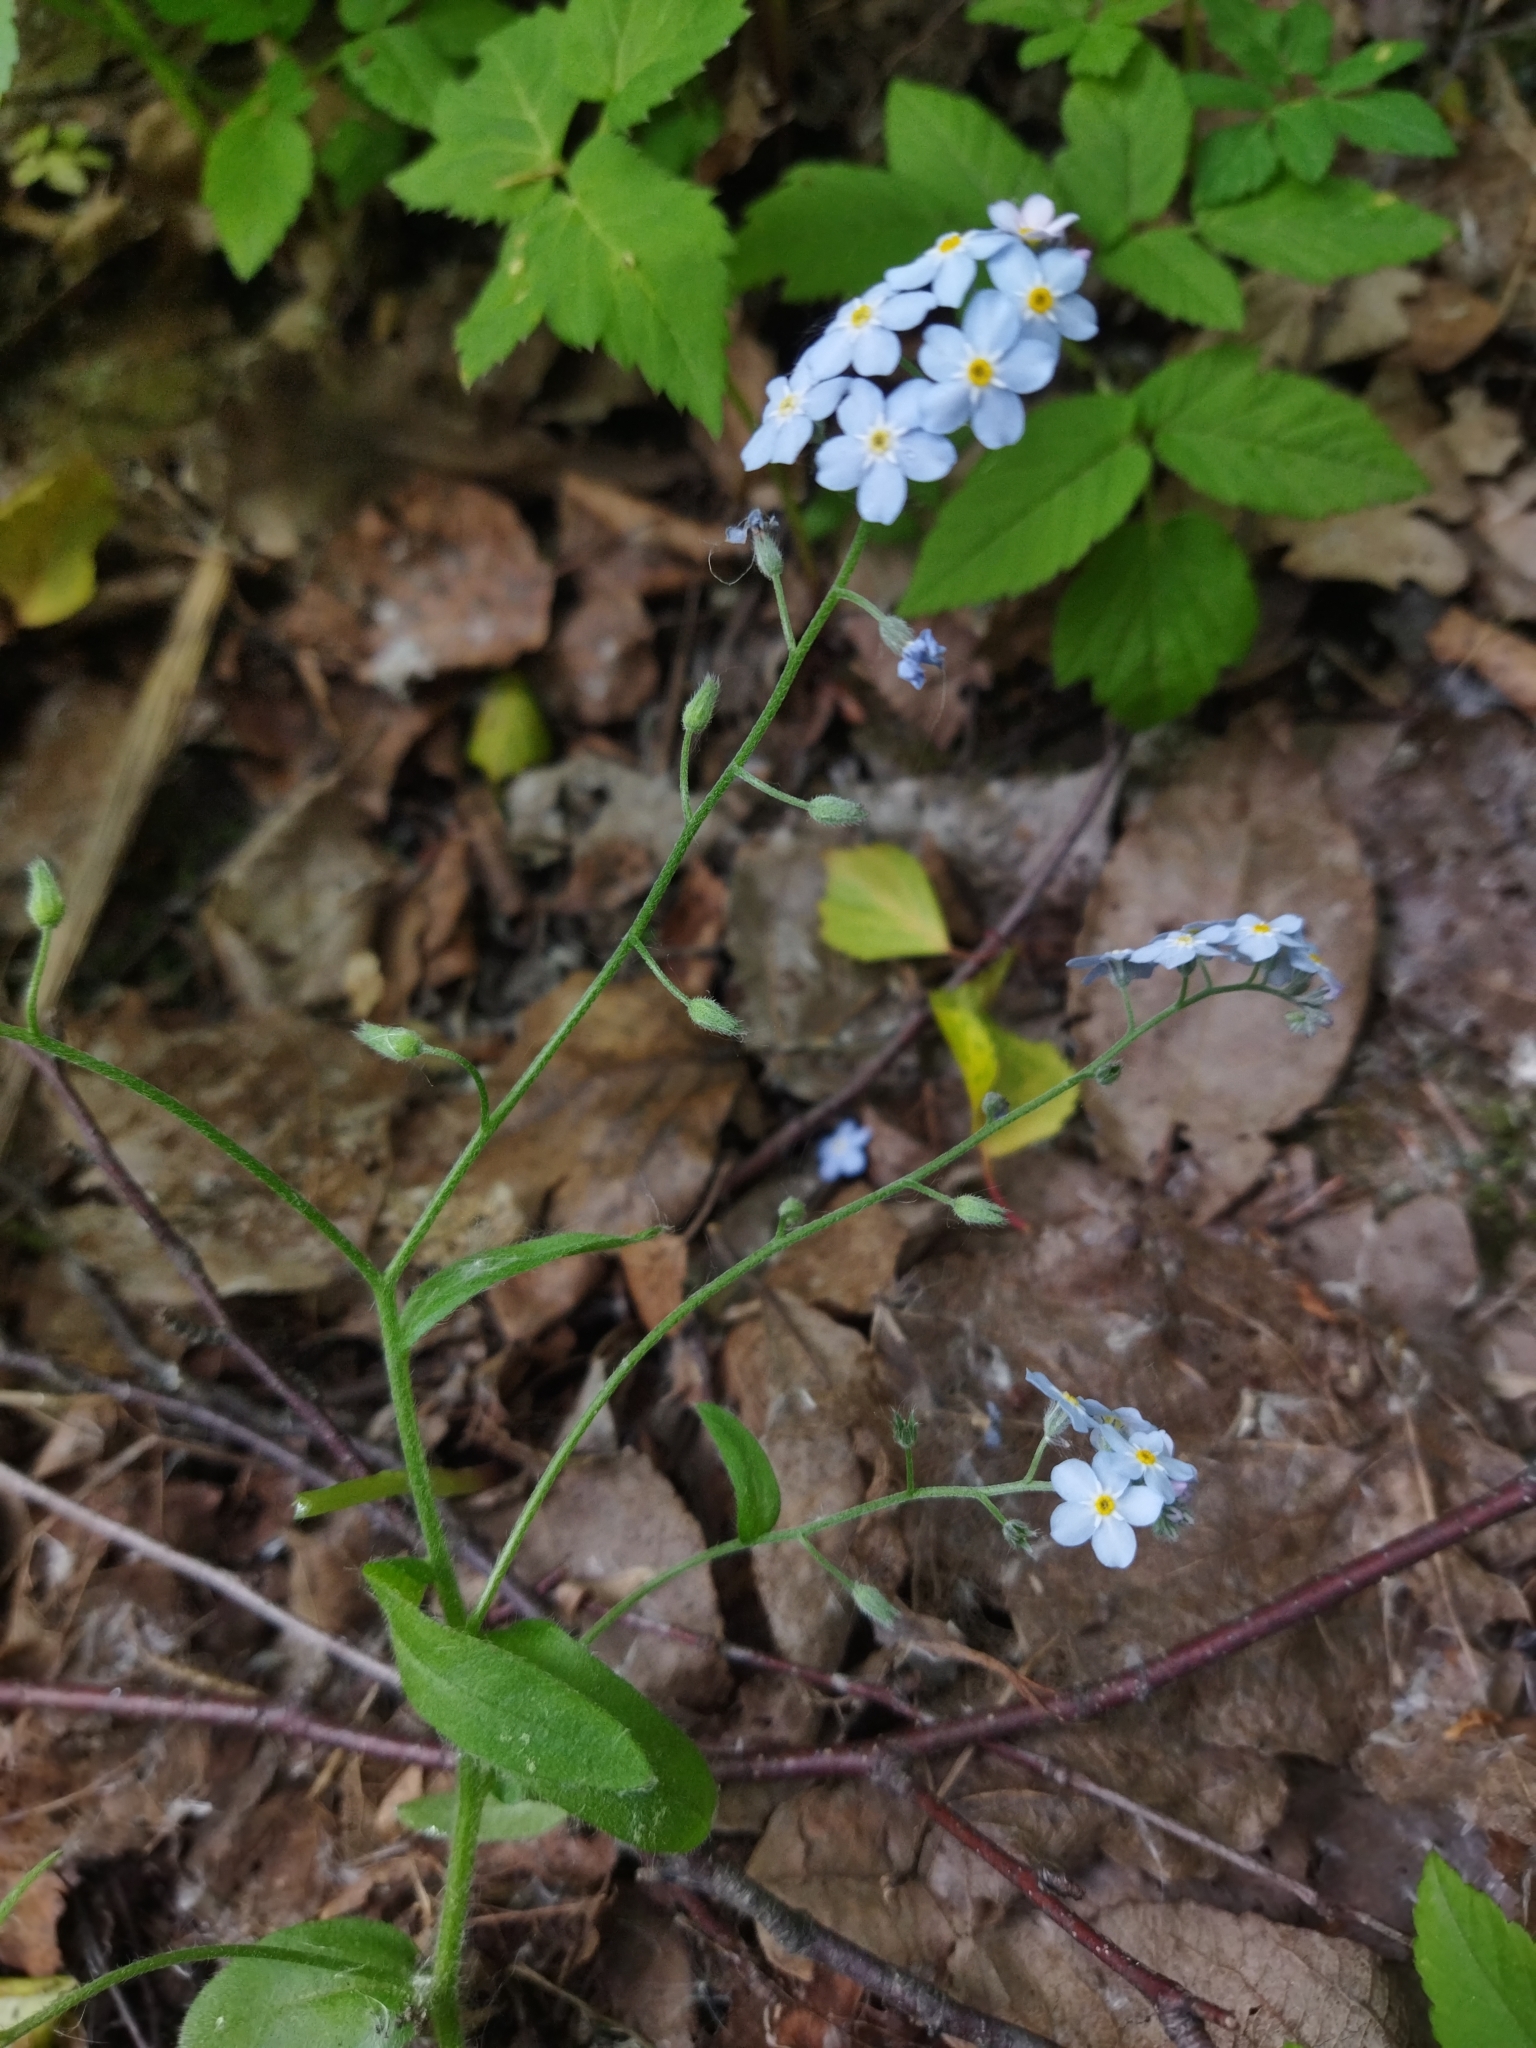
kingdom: Plantae
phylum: Tracheophyta
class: Magnoliopsida
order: Boraginales
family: Boraginaceae
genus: Myosotis
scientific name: Myosotis sylvatica
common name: Wood forget-me-not
